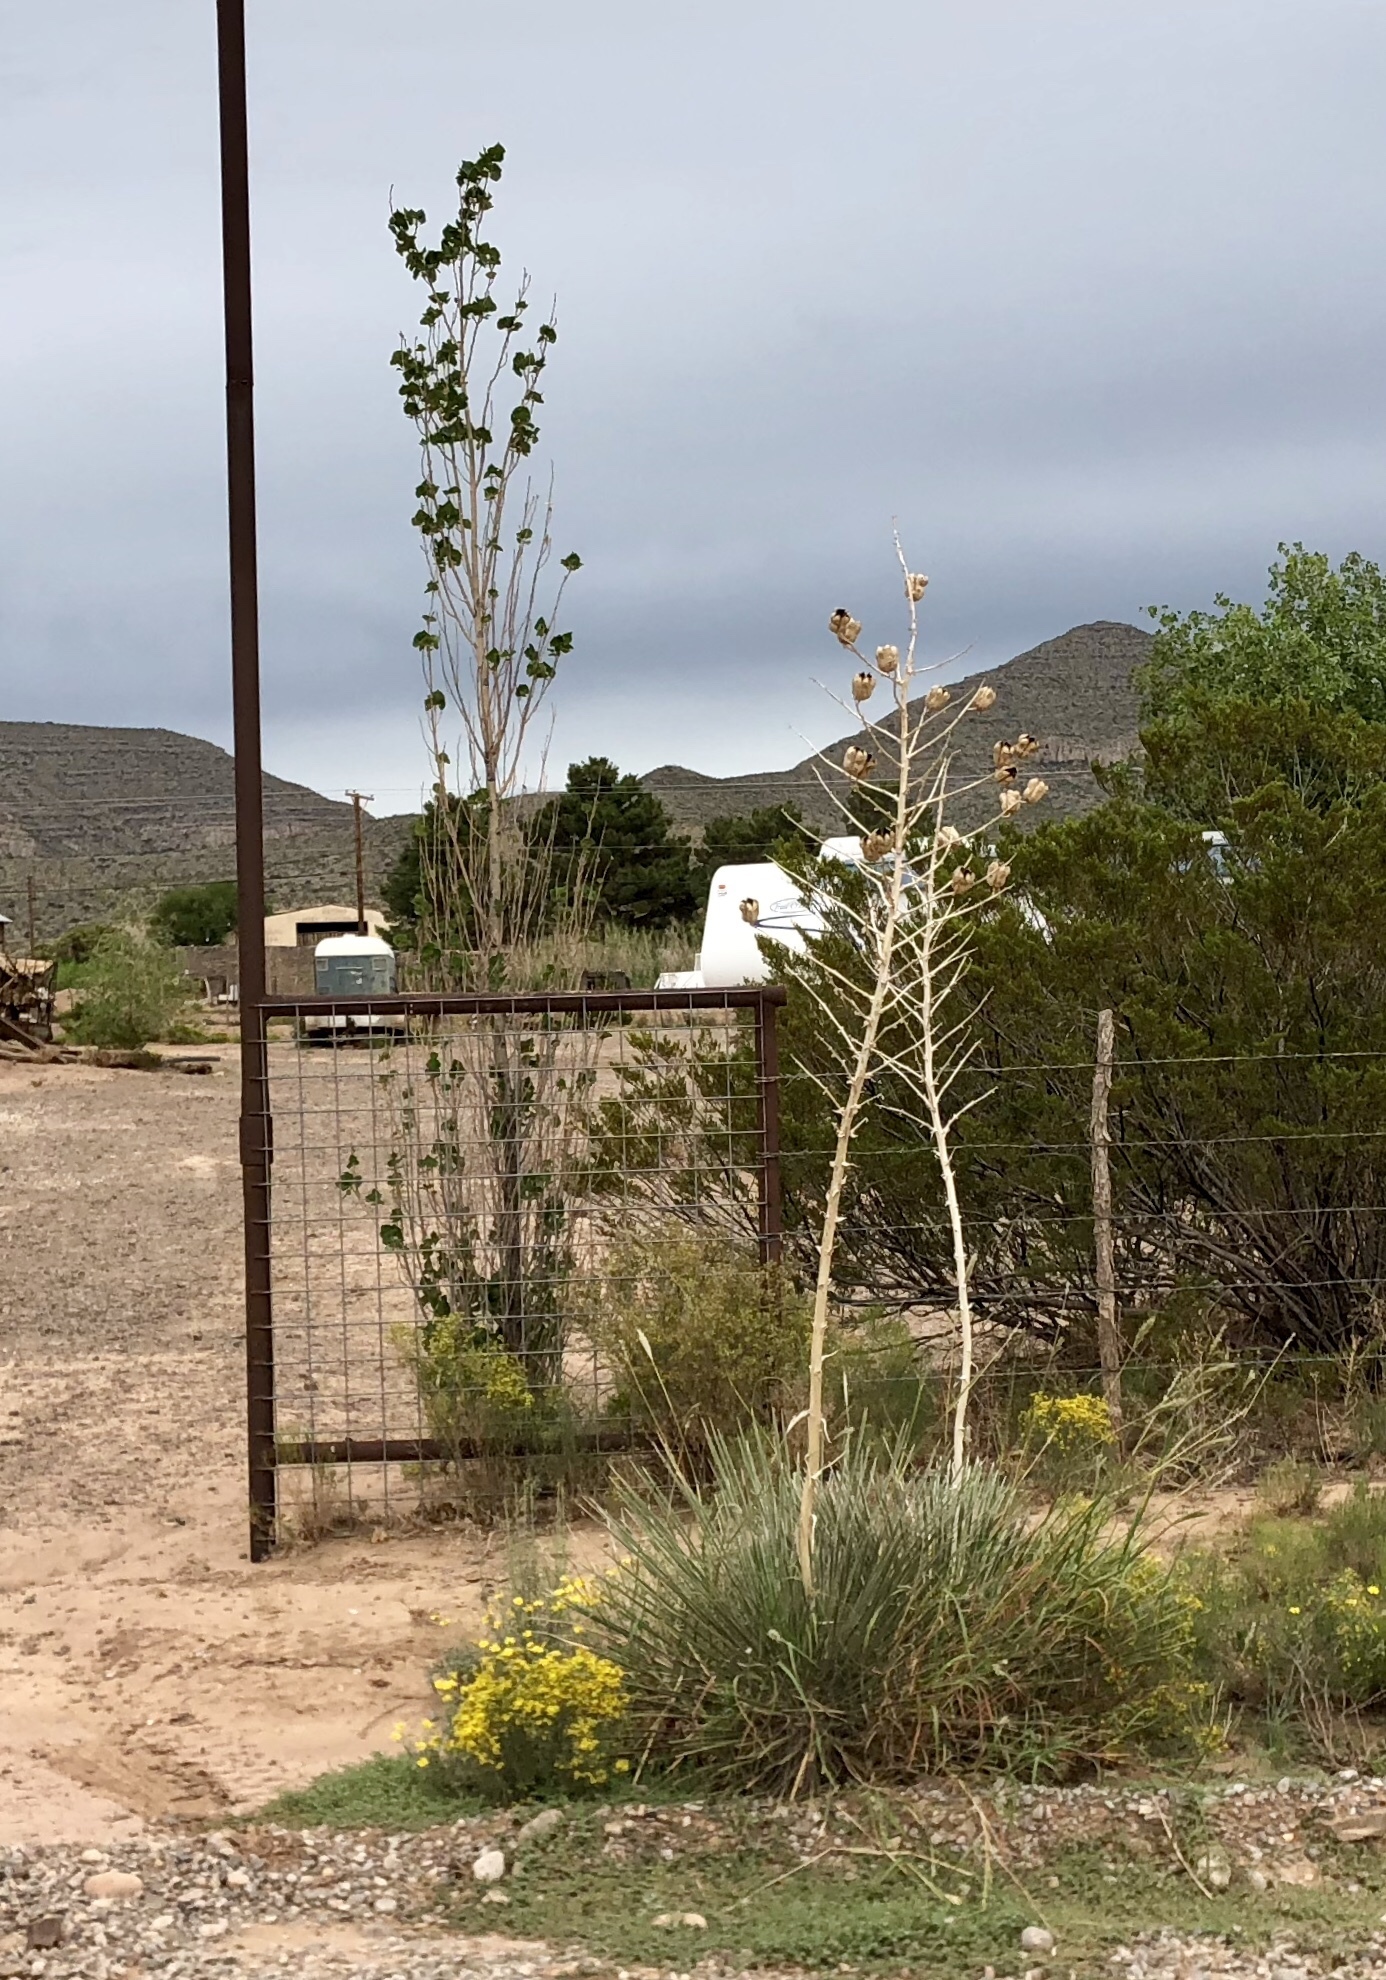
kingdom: Plantae
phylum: Tracheophyta
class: Liliopsida
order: Asparagales
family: Asparagaceae
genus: Yucca
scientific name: Yucca elata
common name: Palmella
